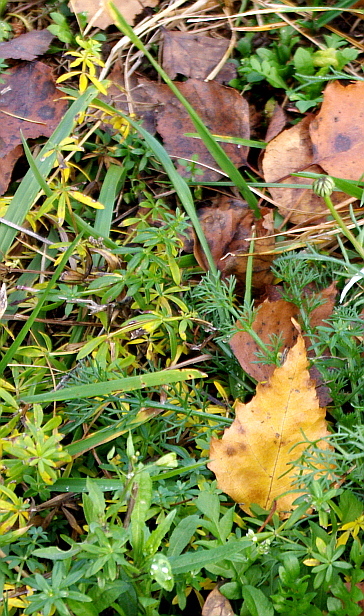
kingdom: Plantae
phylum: Tracheophyta
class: Magnoliopsida
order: Gentianales
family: Rubiaceae
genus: Galium
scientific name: Galium mollugo
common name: Hedge bedstraw
